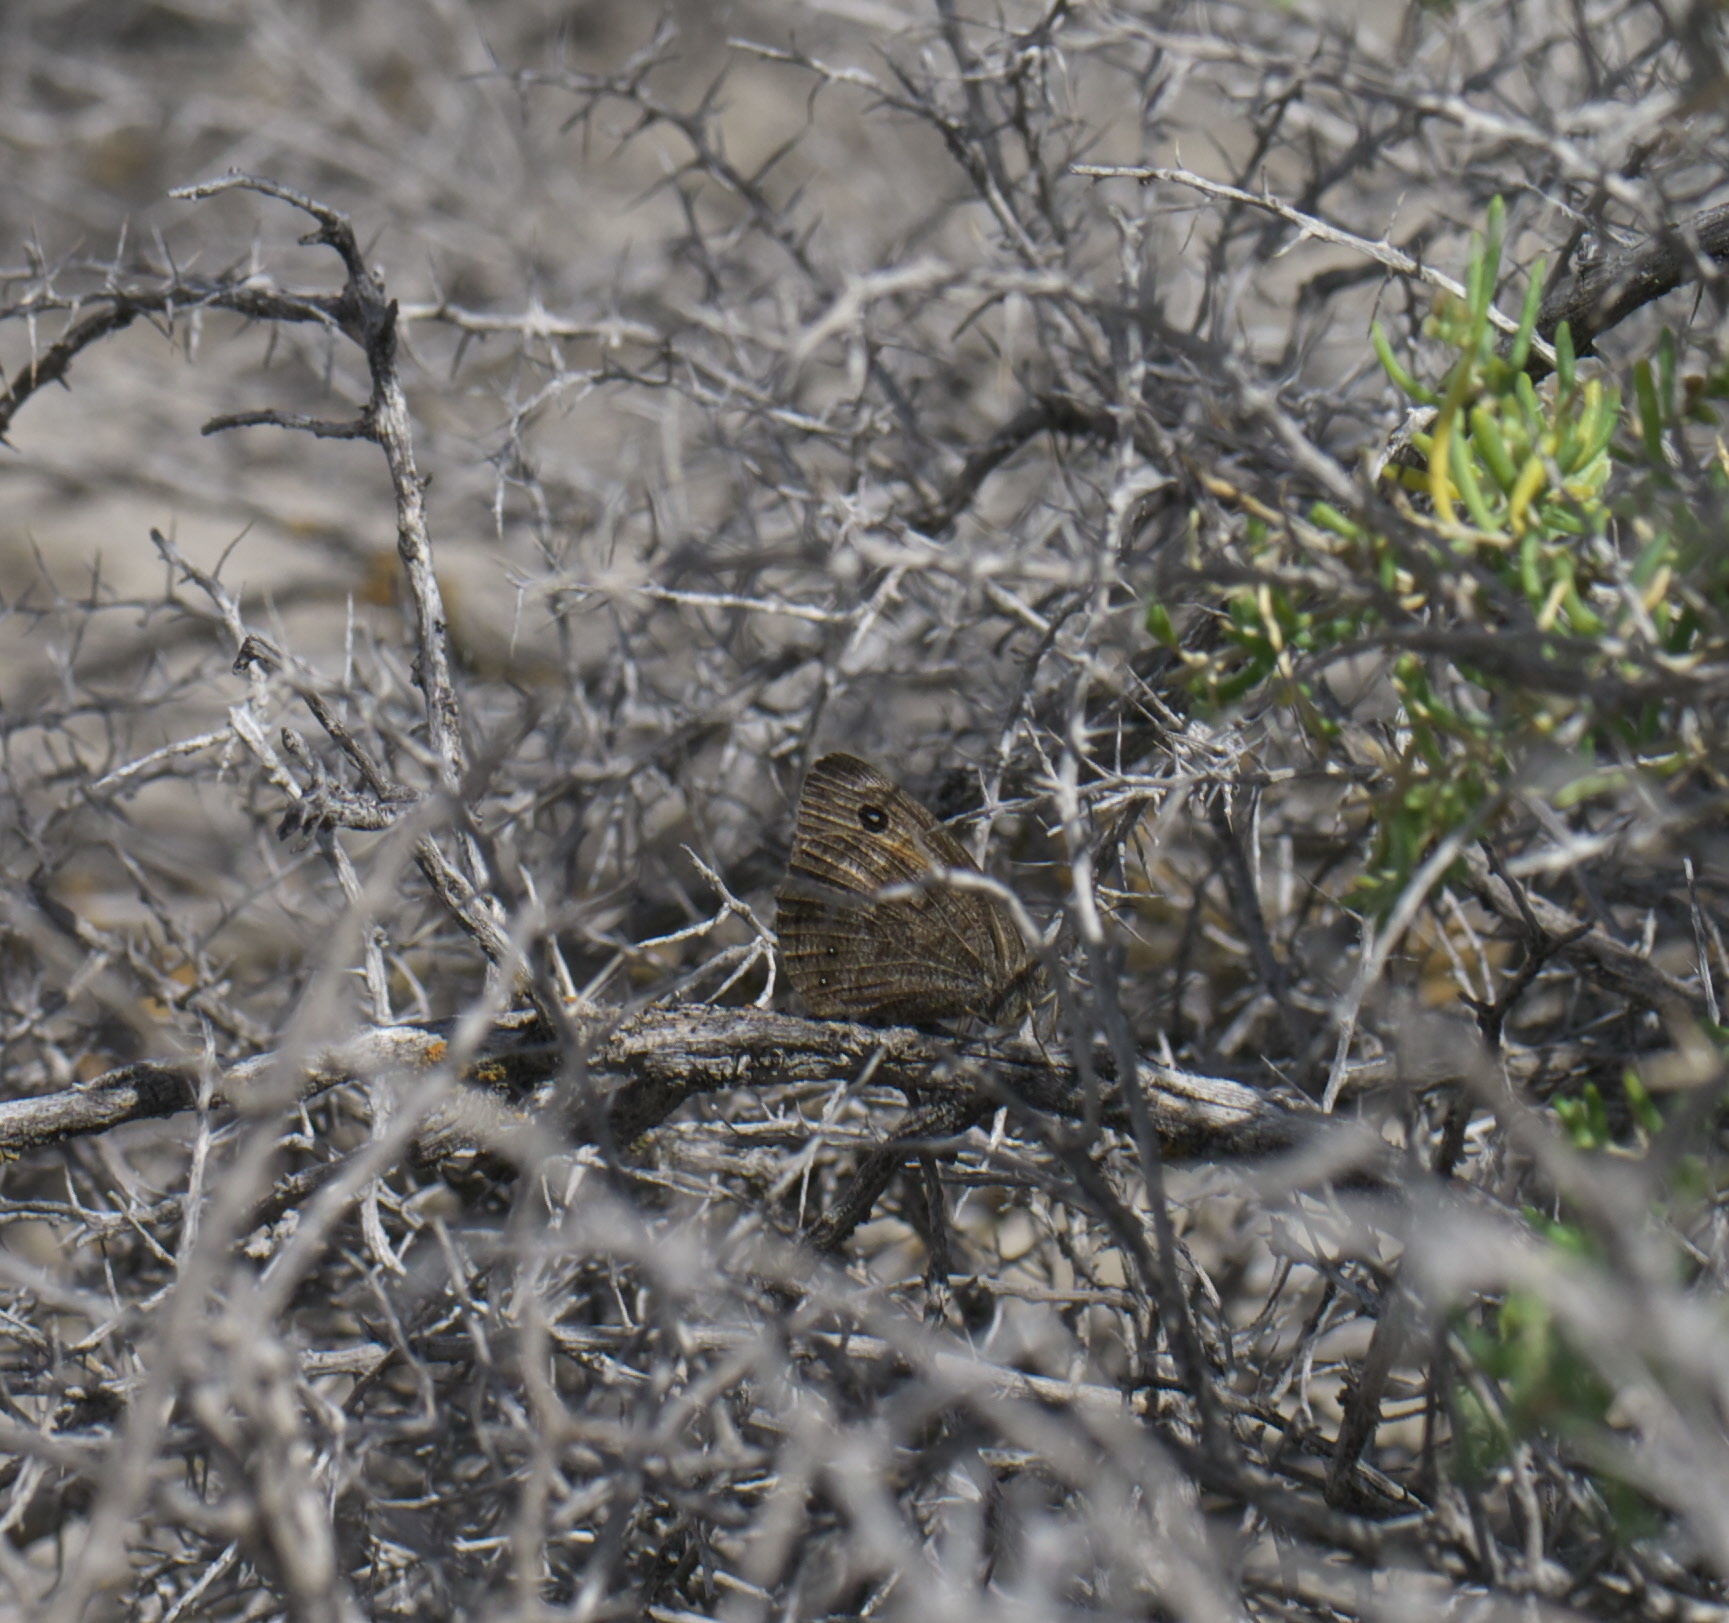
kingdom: Animalia
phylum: Arthropoda
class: Insecta
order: Lepidoptera
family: Nymphalidae
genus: Cercyonis
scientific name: Cercyonis oetus
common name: Small wood-nymph
